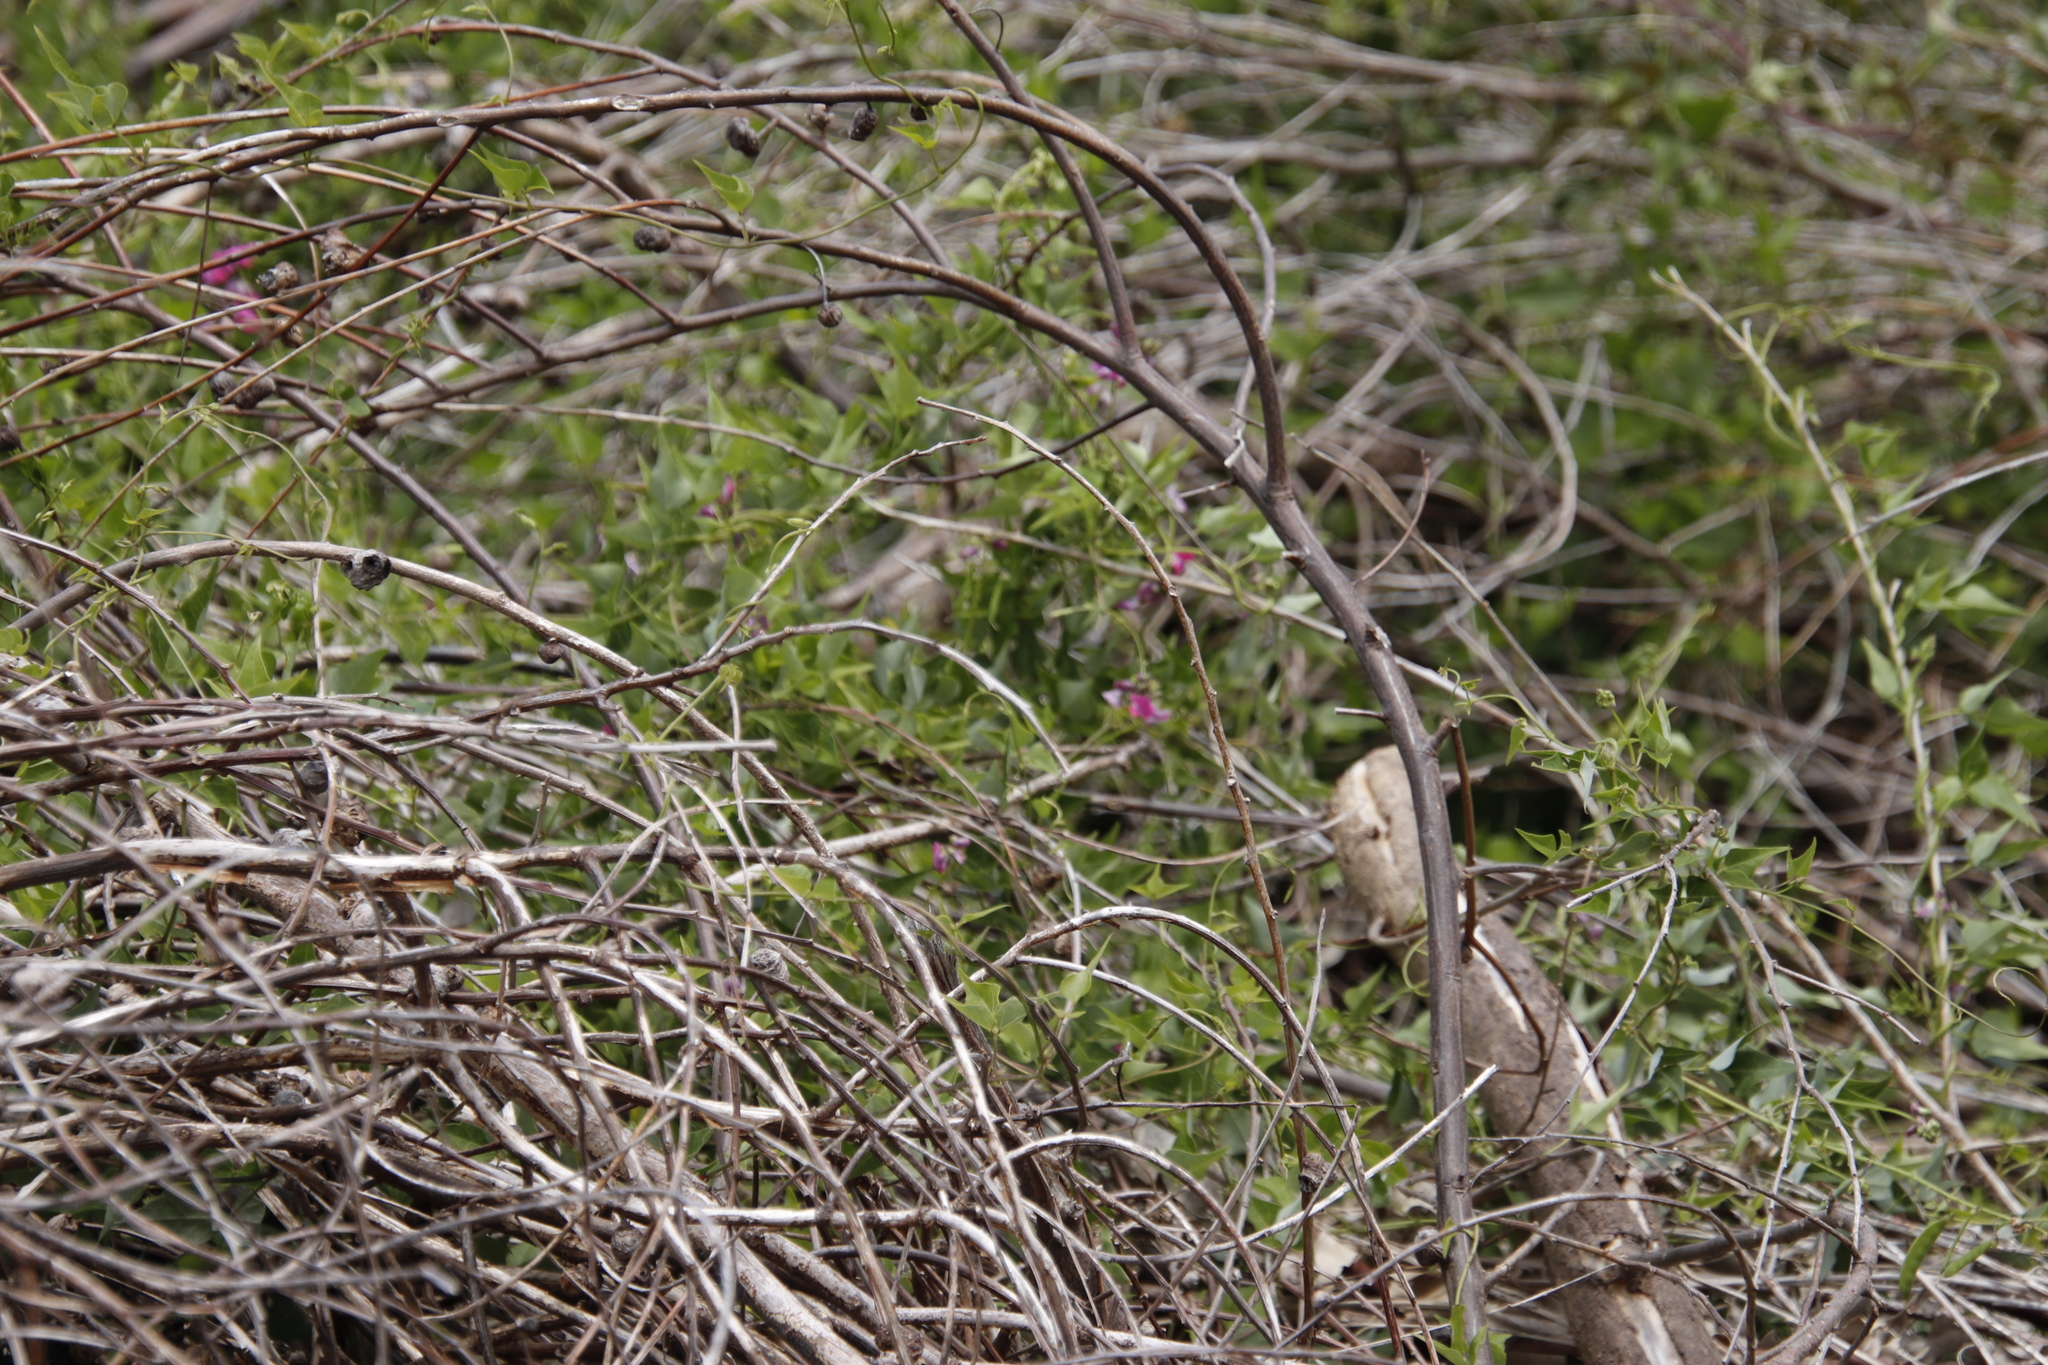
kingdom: Plantae
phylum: Tracheophyta
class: Magnoliopsida
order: Fabales
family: Fabaceae
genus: Dipogon
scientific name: Dipogon lignosus
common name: Okie bean
